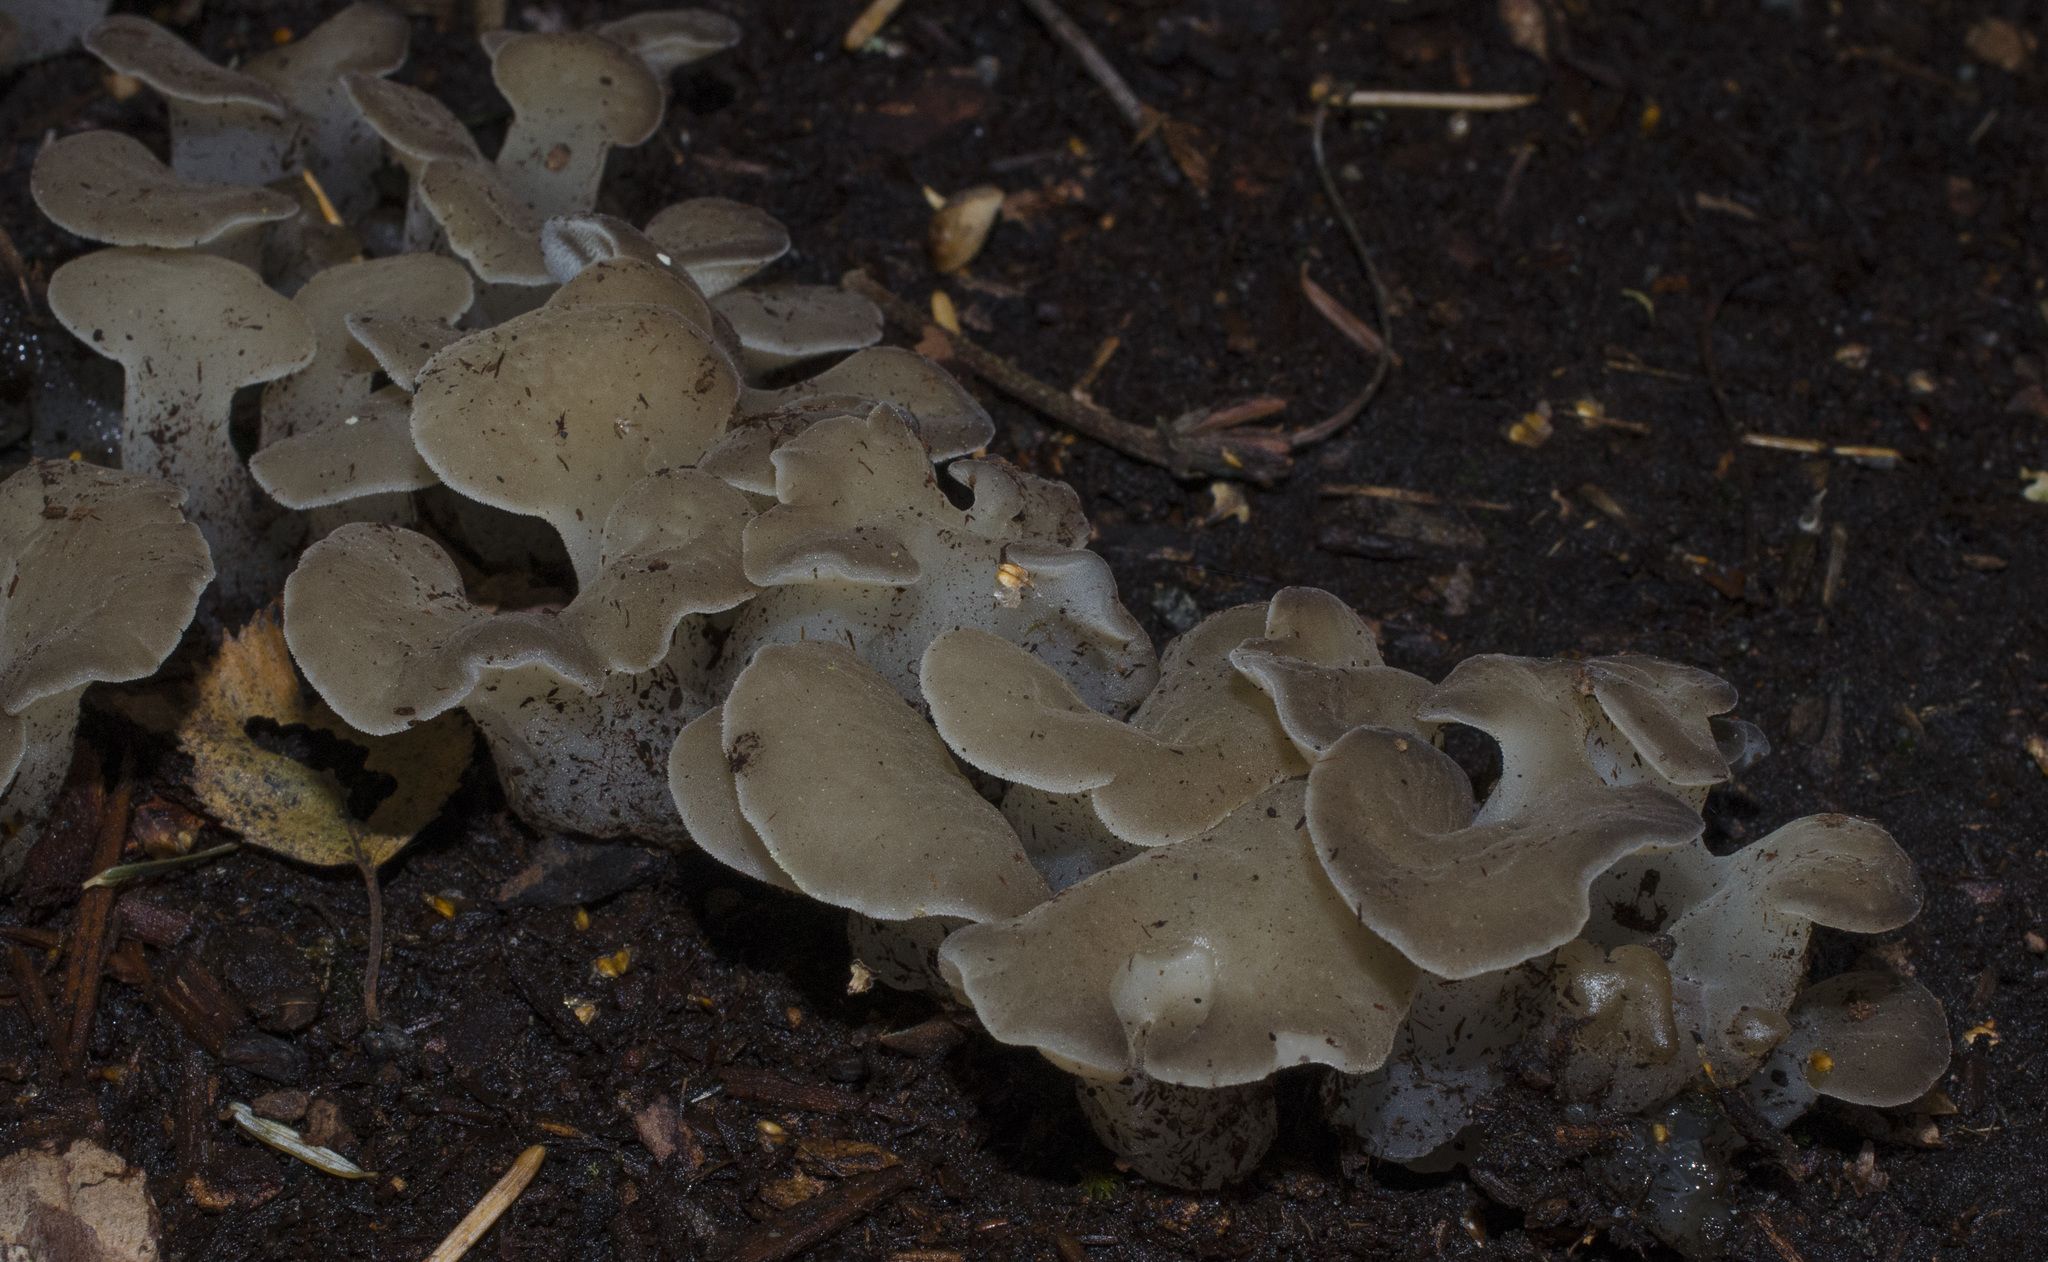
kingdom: Fungi
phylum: Basidiomycota
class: Agaricomycetes
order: Auriculariales
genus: Pseudohydnum
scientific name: Pseudohydnum gelatinosum
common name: Jelly tongue
